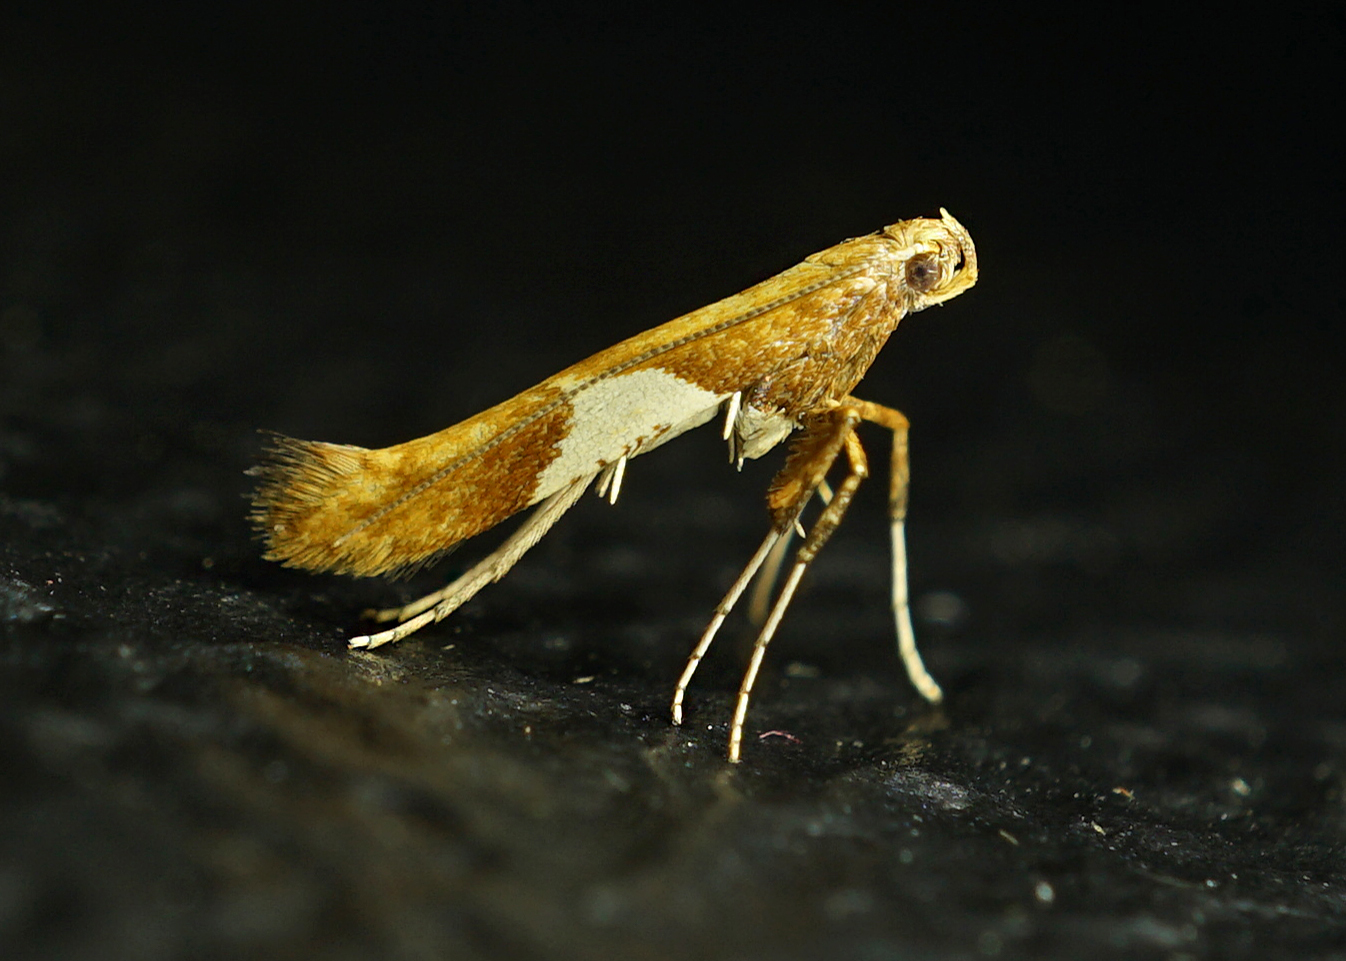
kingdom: Animalia
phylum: Arthropoda
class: Insecta
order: Lepidoptera
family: Gracillariidae
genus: Caloptilia
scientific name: Caloptilia stigmatella
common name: White-triangle slender
